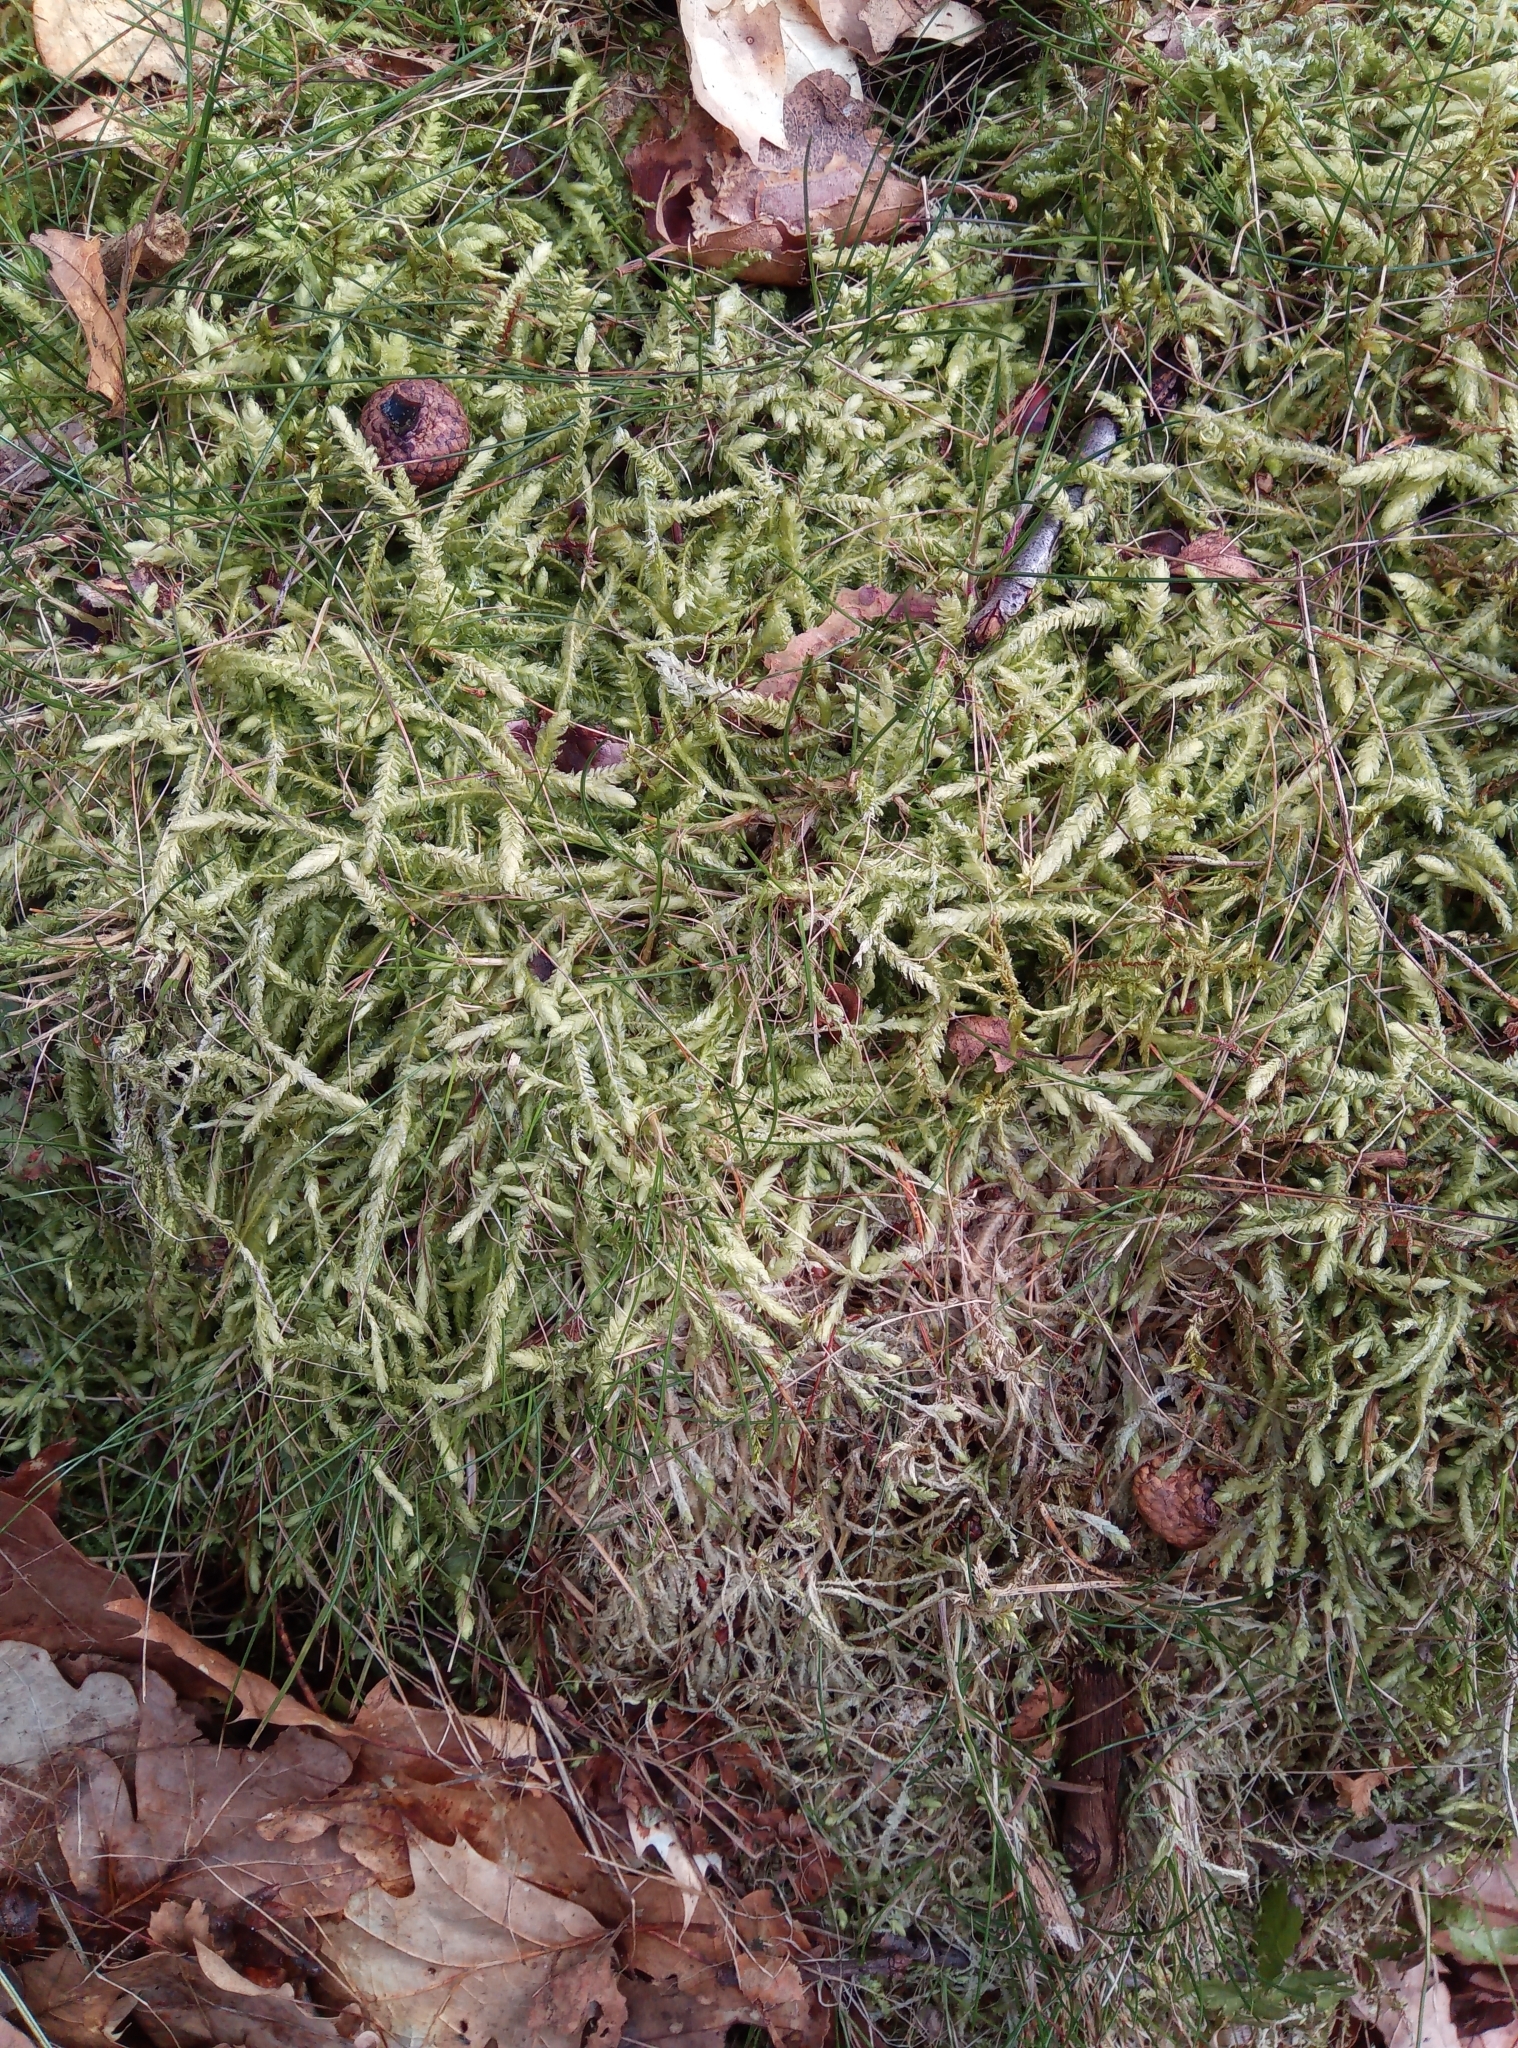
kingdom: Plantae
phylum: Bryophyta
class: Bryopsida
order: Hypnales
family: Plagiotheciaceae
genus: Plagiothecium
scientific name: Plagiothecium undulatum
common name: Waved silk-moss
